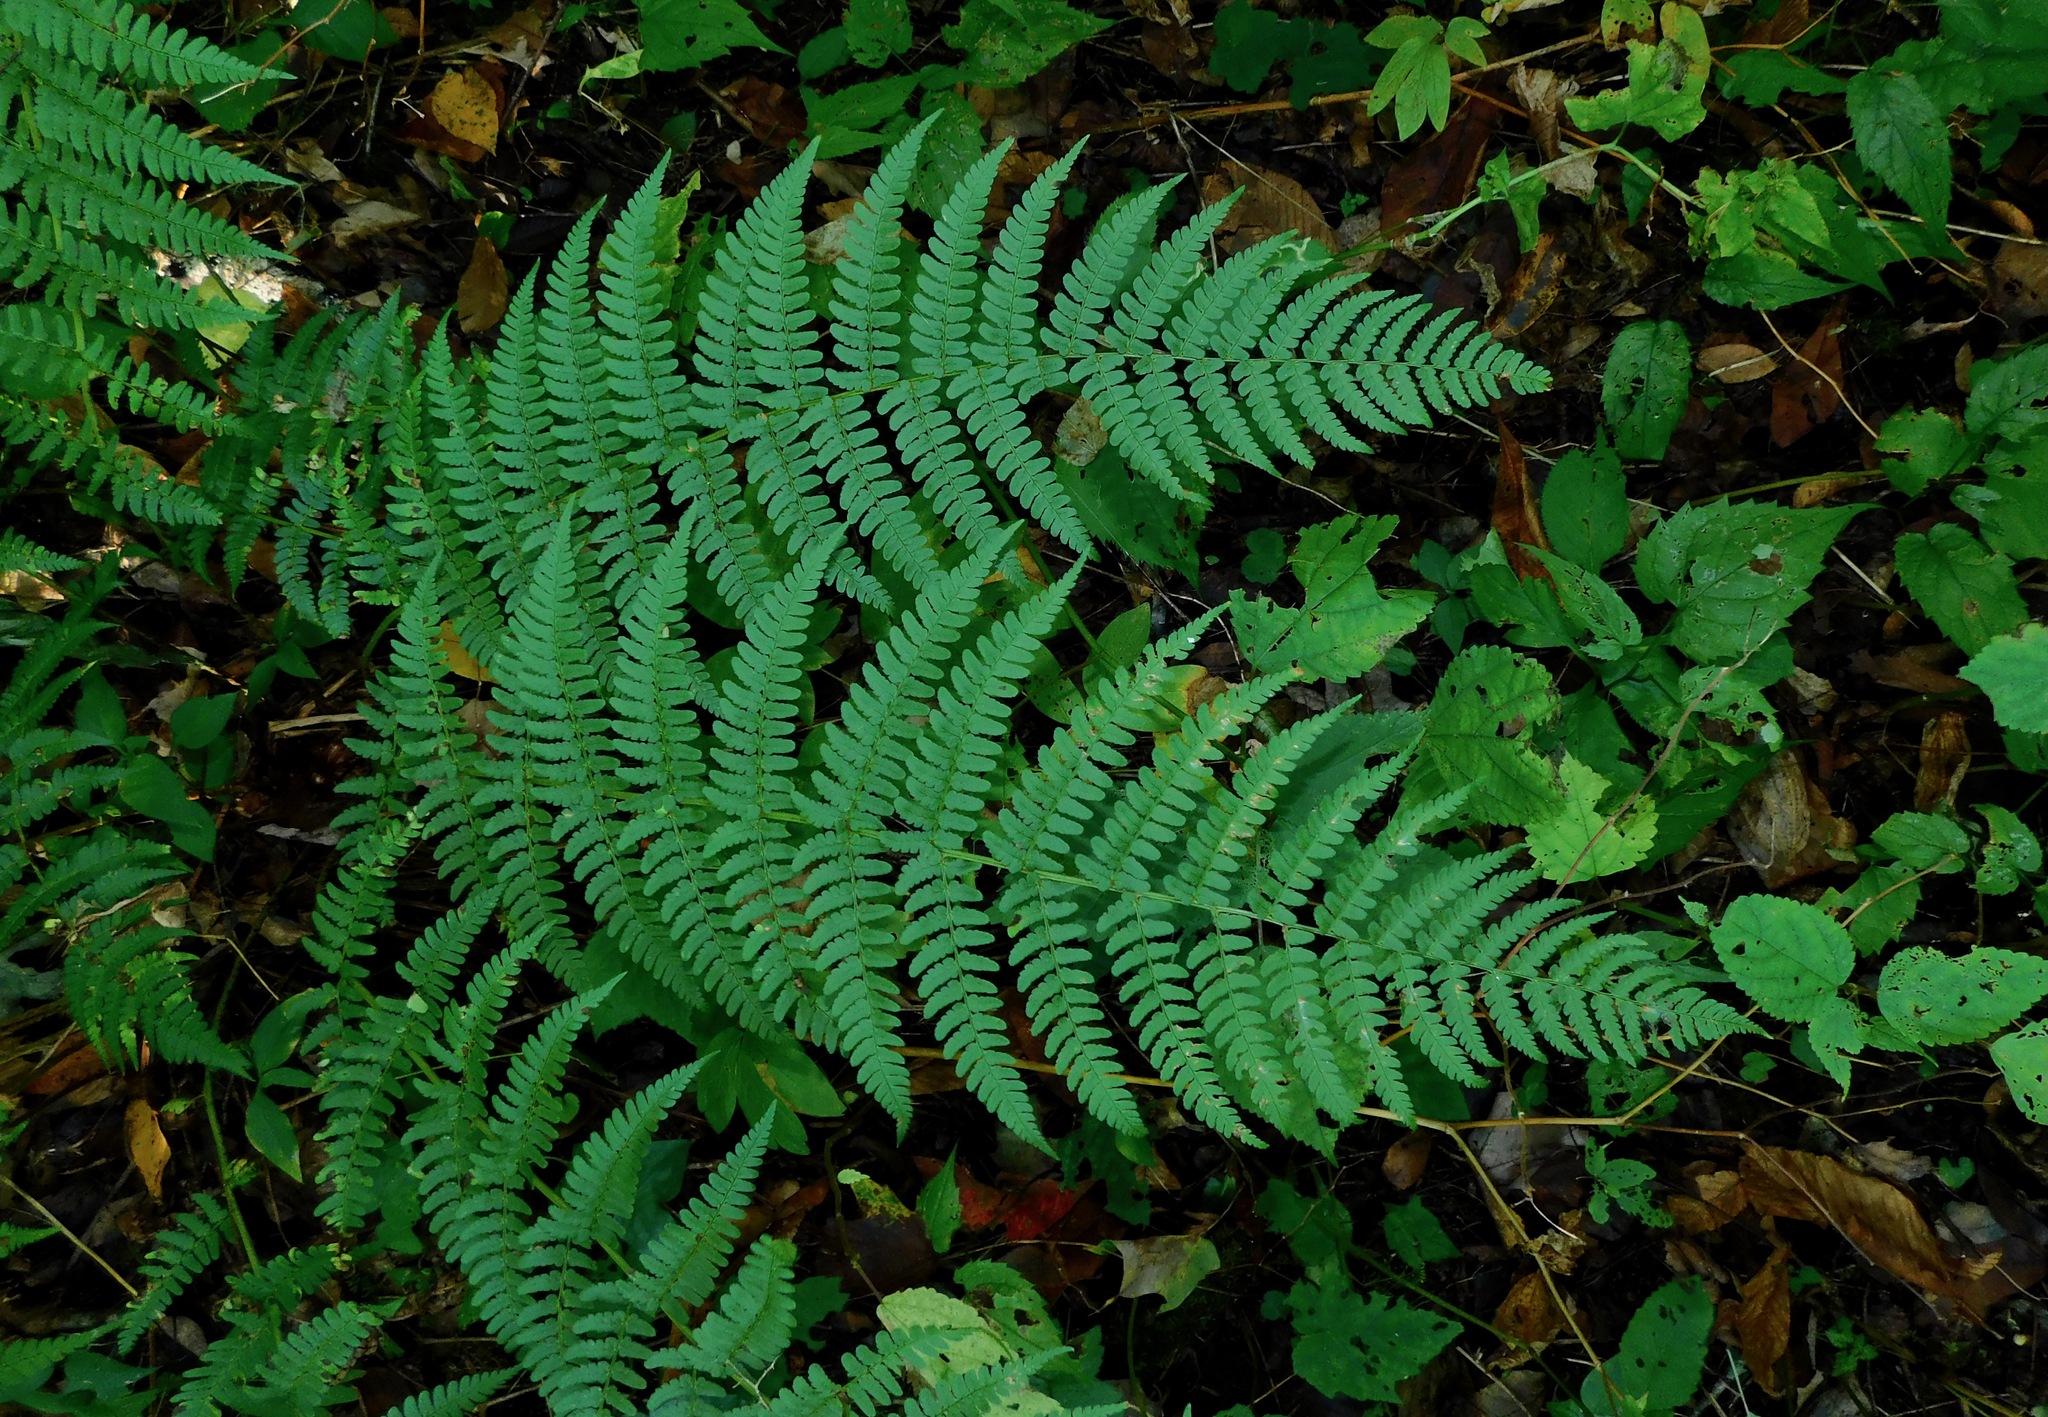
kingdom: Plantae
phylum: Tracheophyta
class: Polypodiopsida
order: Polypodiales
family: Dryopteridaceae
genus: Dryopteris
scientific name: Dryopteris marginalis
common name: Marginal wood fern
